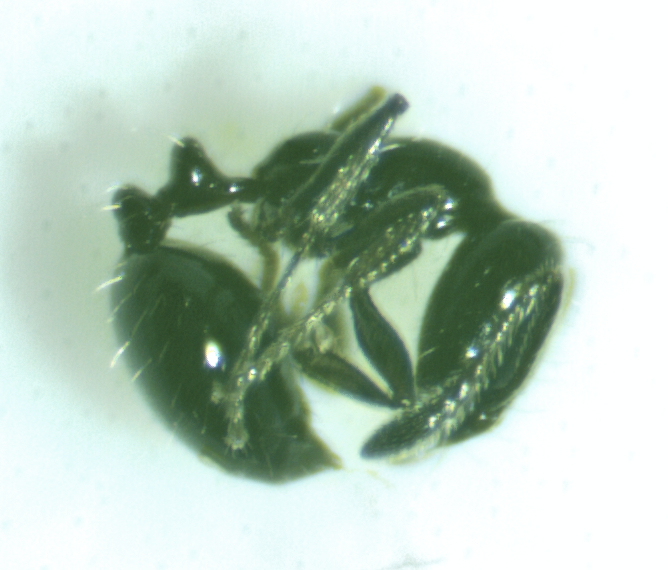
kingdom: Animalia
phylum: Arthropoda
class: Insecta
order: Hymenoptera
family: Formicidae
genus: Monomorium
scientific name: Monomorium minimum
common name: Little black ant
